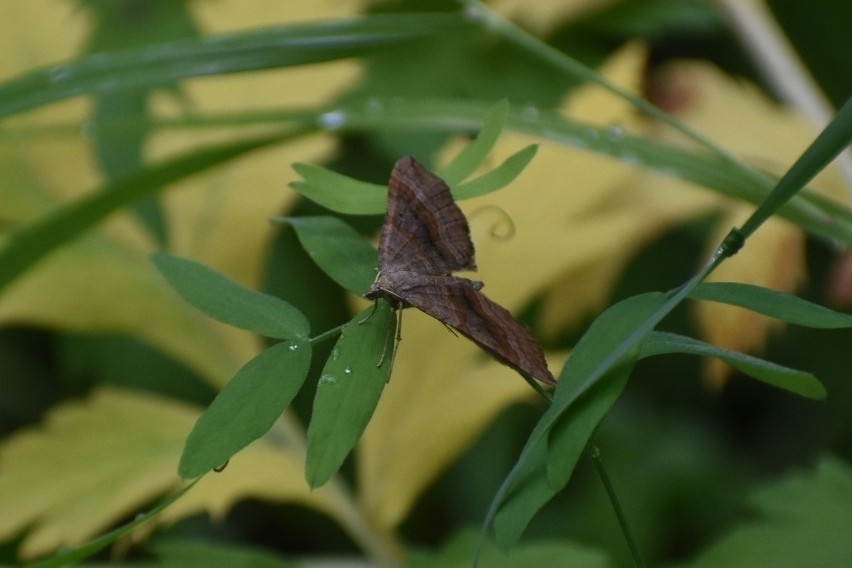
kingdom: Animalia
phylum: Arthropoda
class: Insecta
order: Lepidoptera
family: Geometridae
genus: Scotopteryx
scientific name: Scotopteryx chenopodiata
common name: Shaded broad-bar
